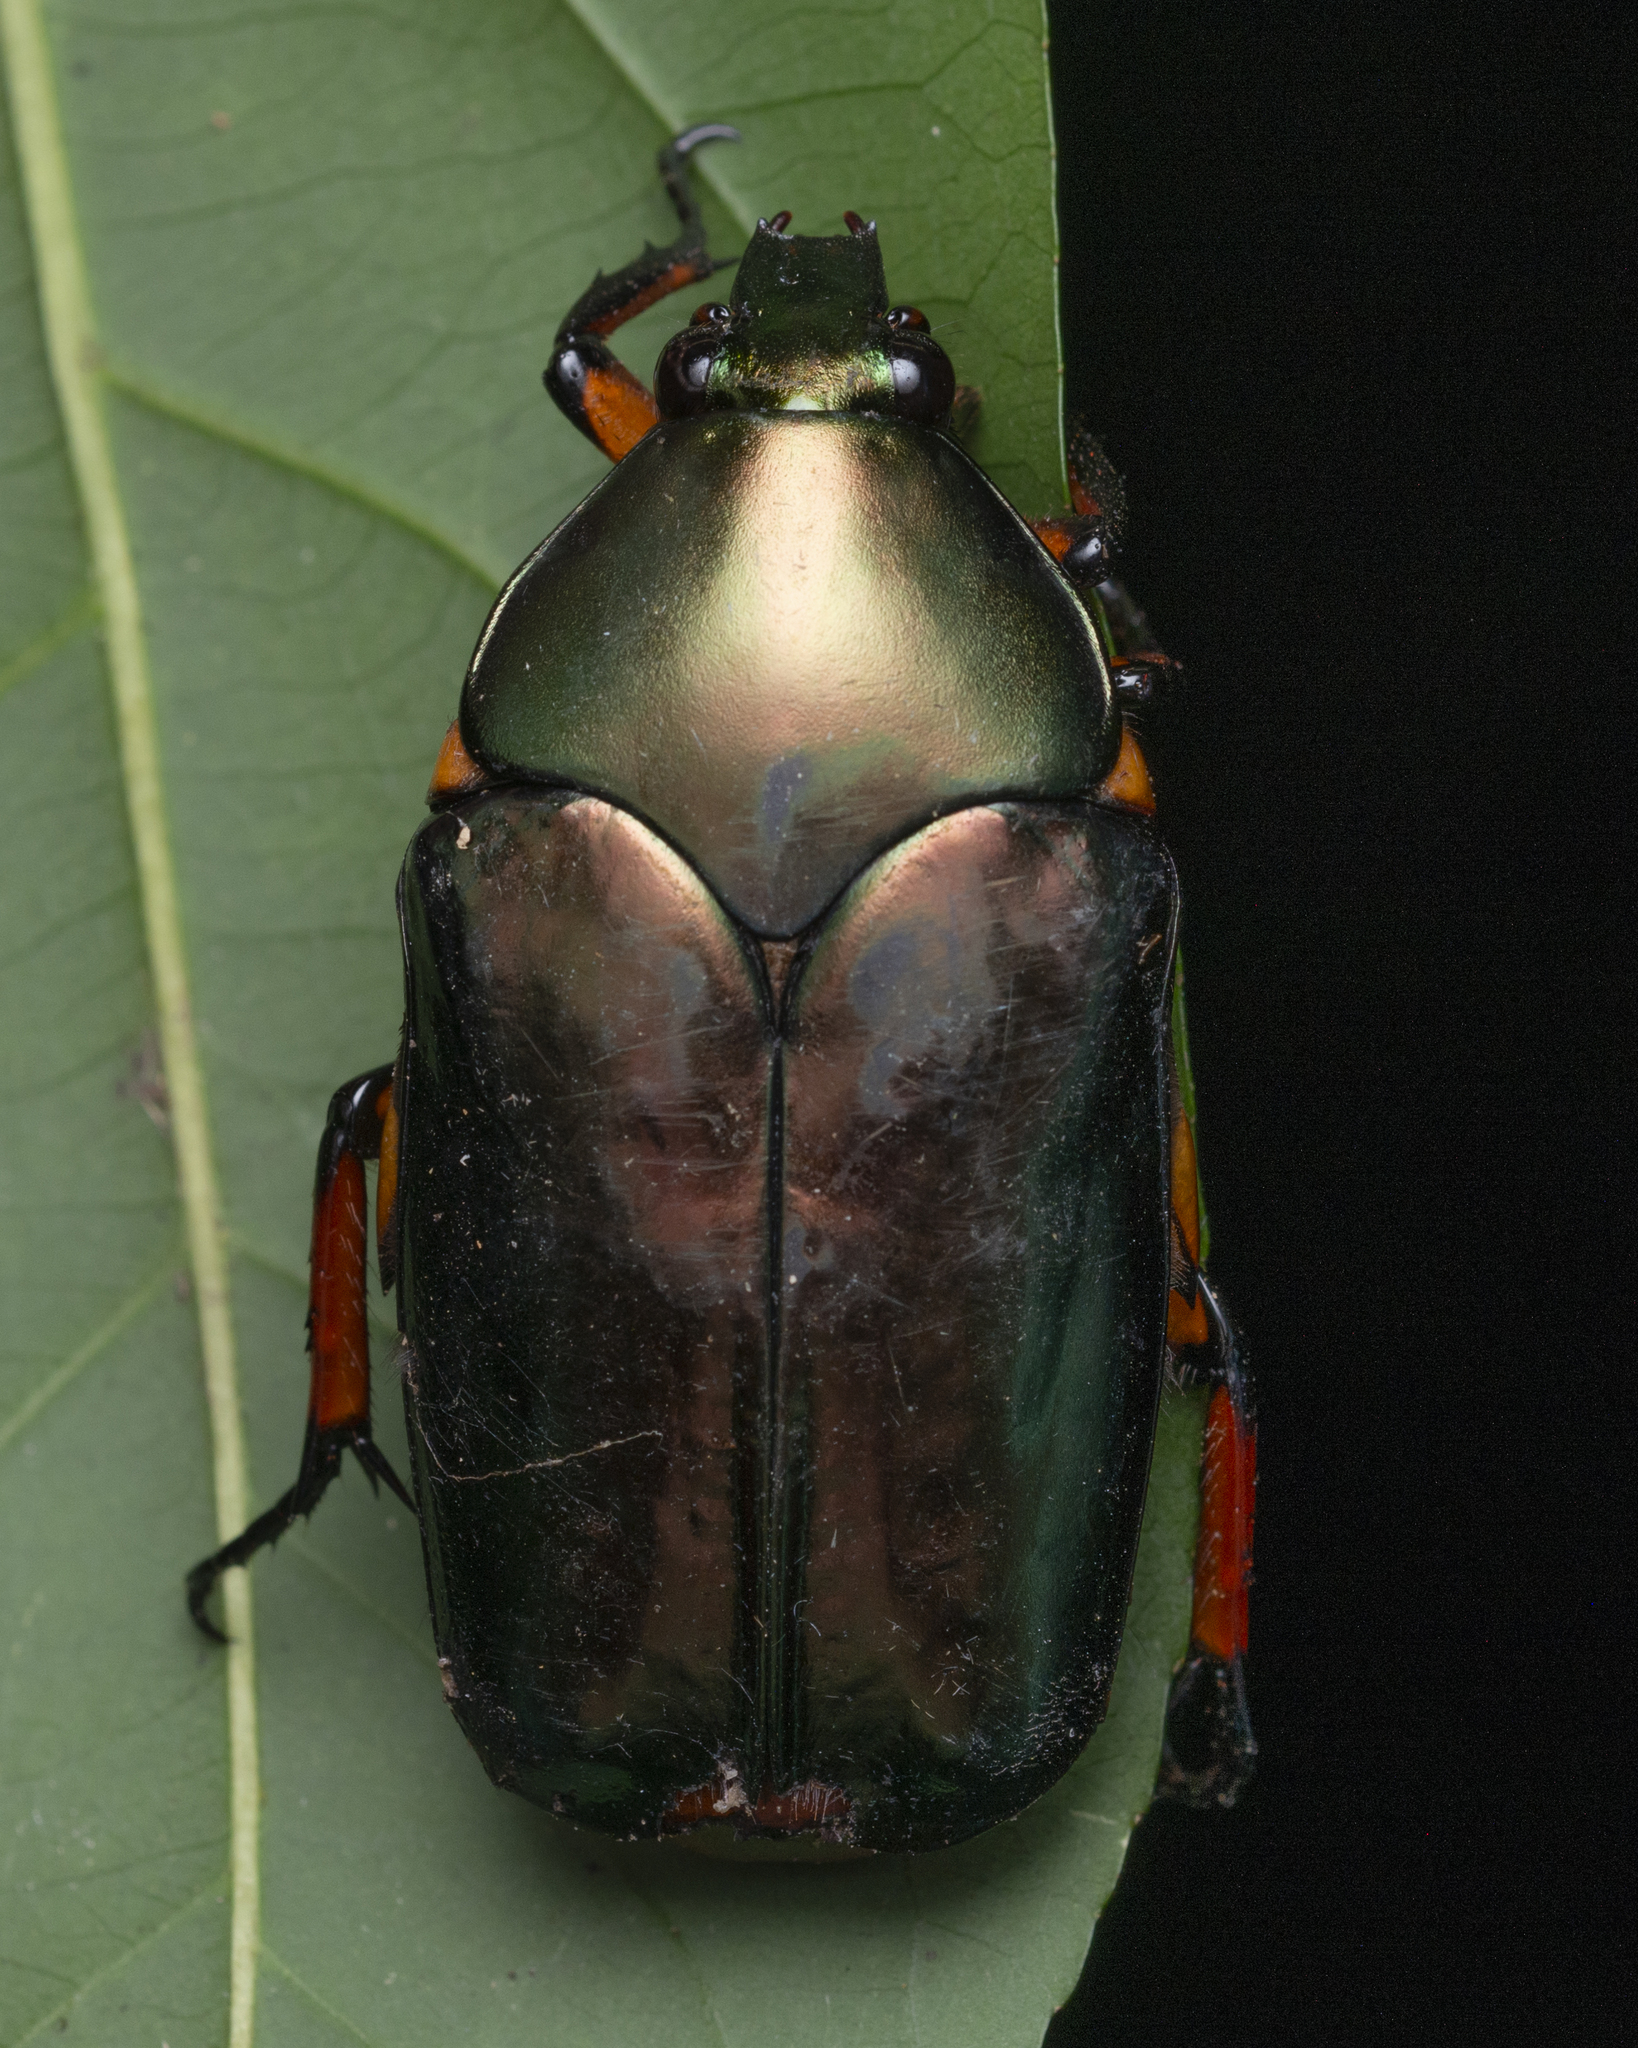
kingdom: Animalia
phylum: Arthropoda
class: Insecta
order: Coleoptera
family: Scarabaeidae
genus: Agestrata
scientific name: Agestrata orichalca
